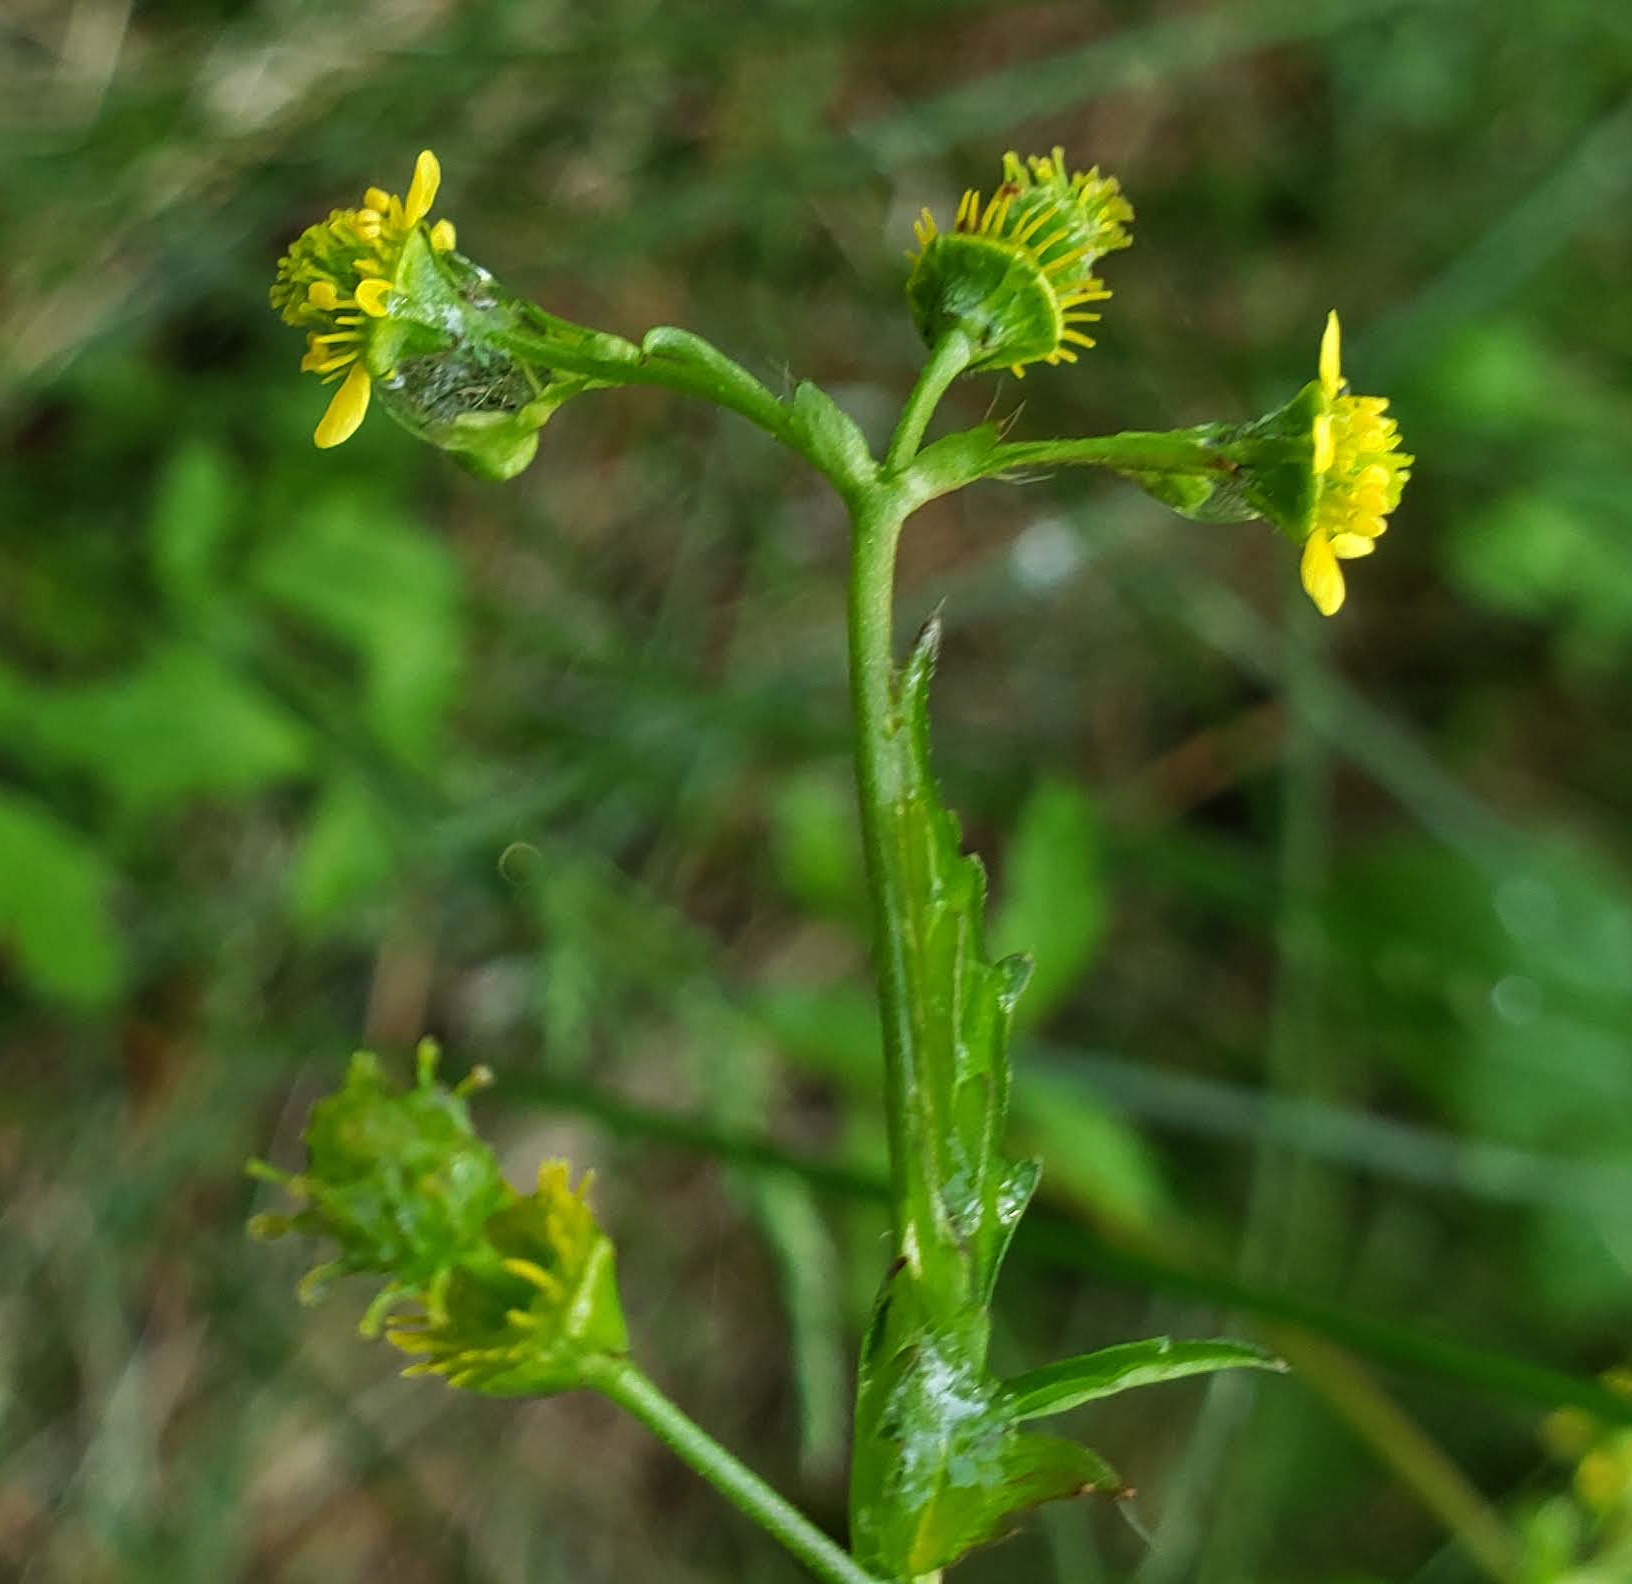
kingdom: Plantae
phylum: Tracheophyta
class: Magnoliopsida
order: Rosales
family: Rosaceae
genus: Geum
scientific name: Geum vernum
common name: Spring avens
